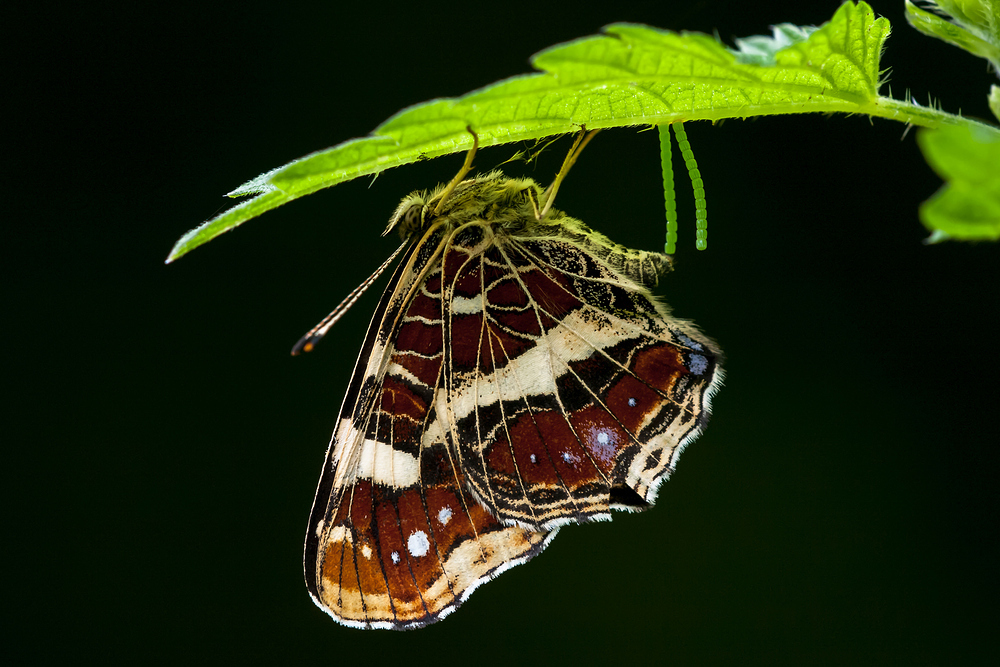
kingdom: Animalia
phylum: Arthropoda
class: Insecta
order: Lepidoptera
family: Nymphalidae
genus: Araschnia
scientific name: Araschnia levana
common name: Map butterfly
